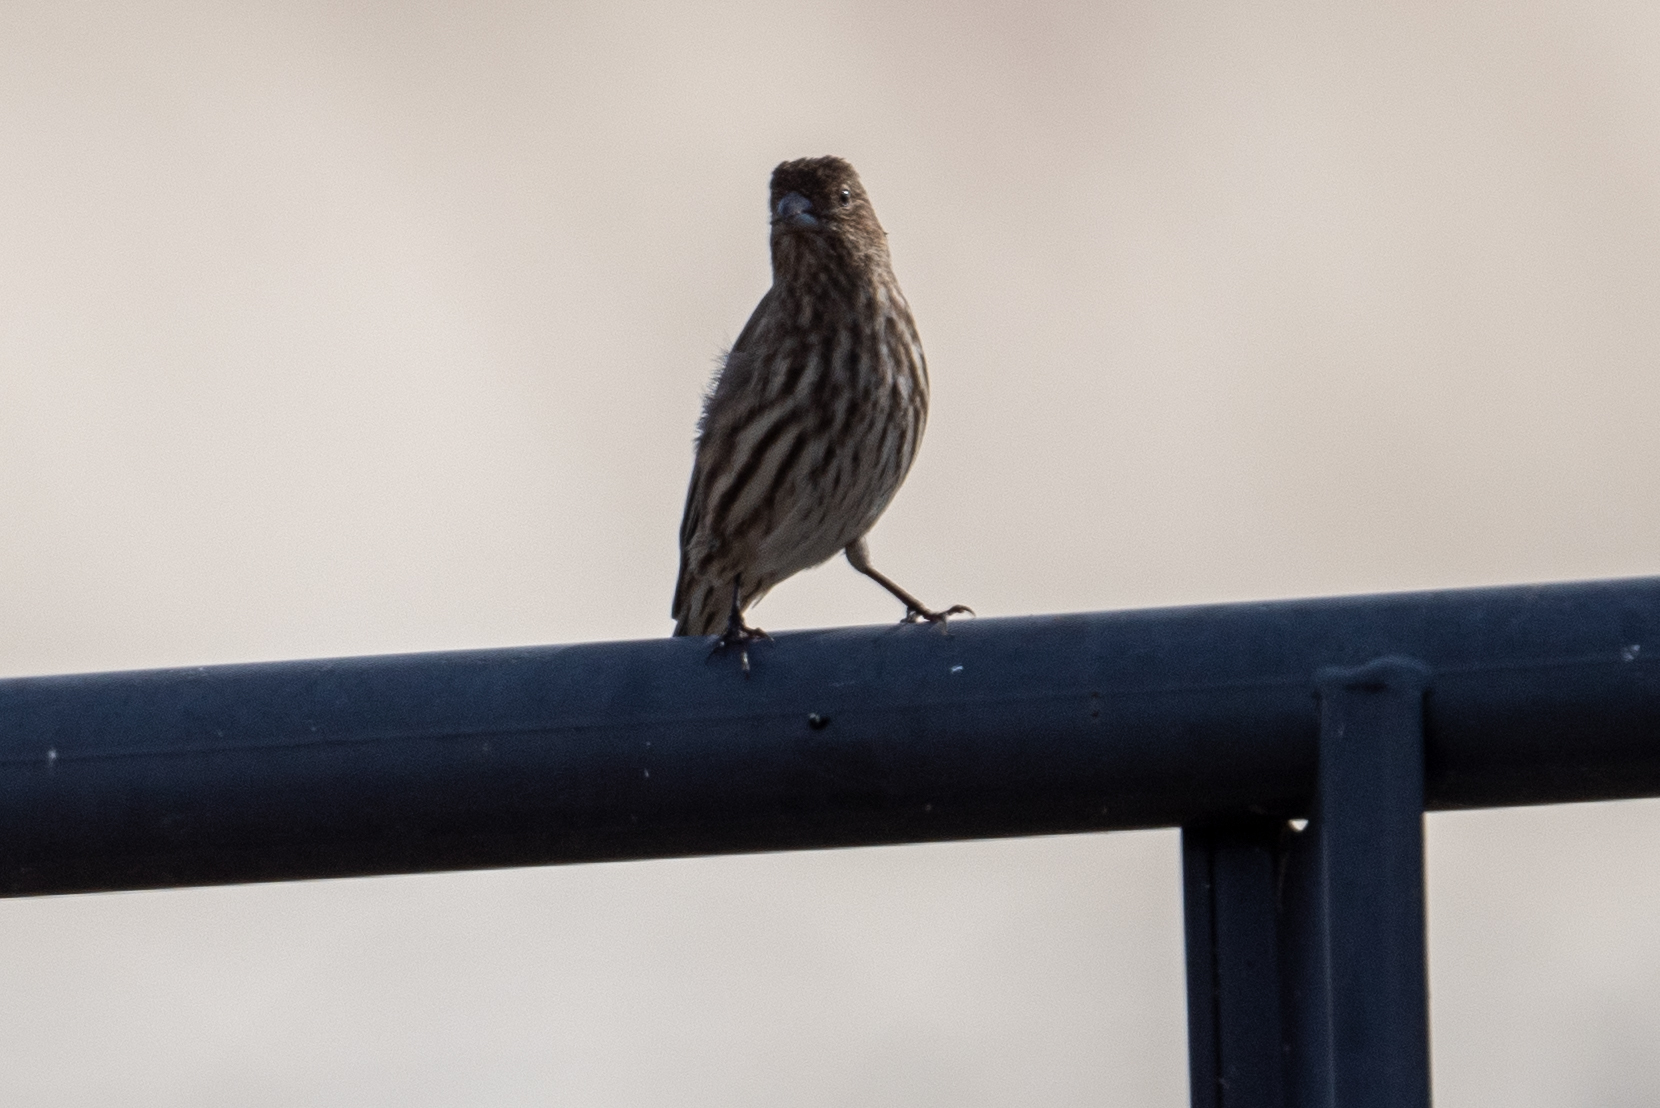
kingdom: Animalia
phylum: Chordata
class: Aves
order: Passeriformes
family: Fringillidae
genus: Haemorhous
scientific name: Haemorhous mexicanus
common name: House finch
